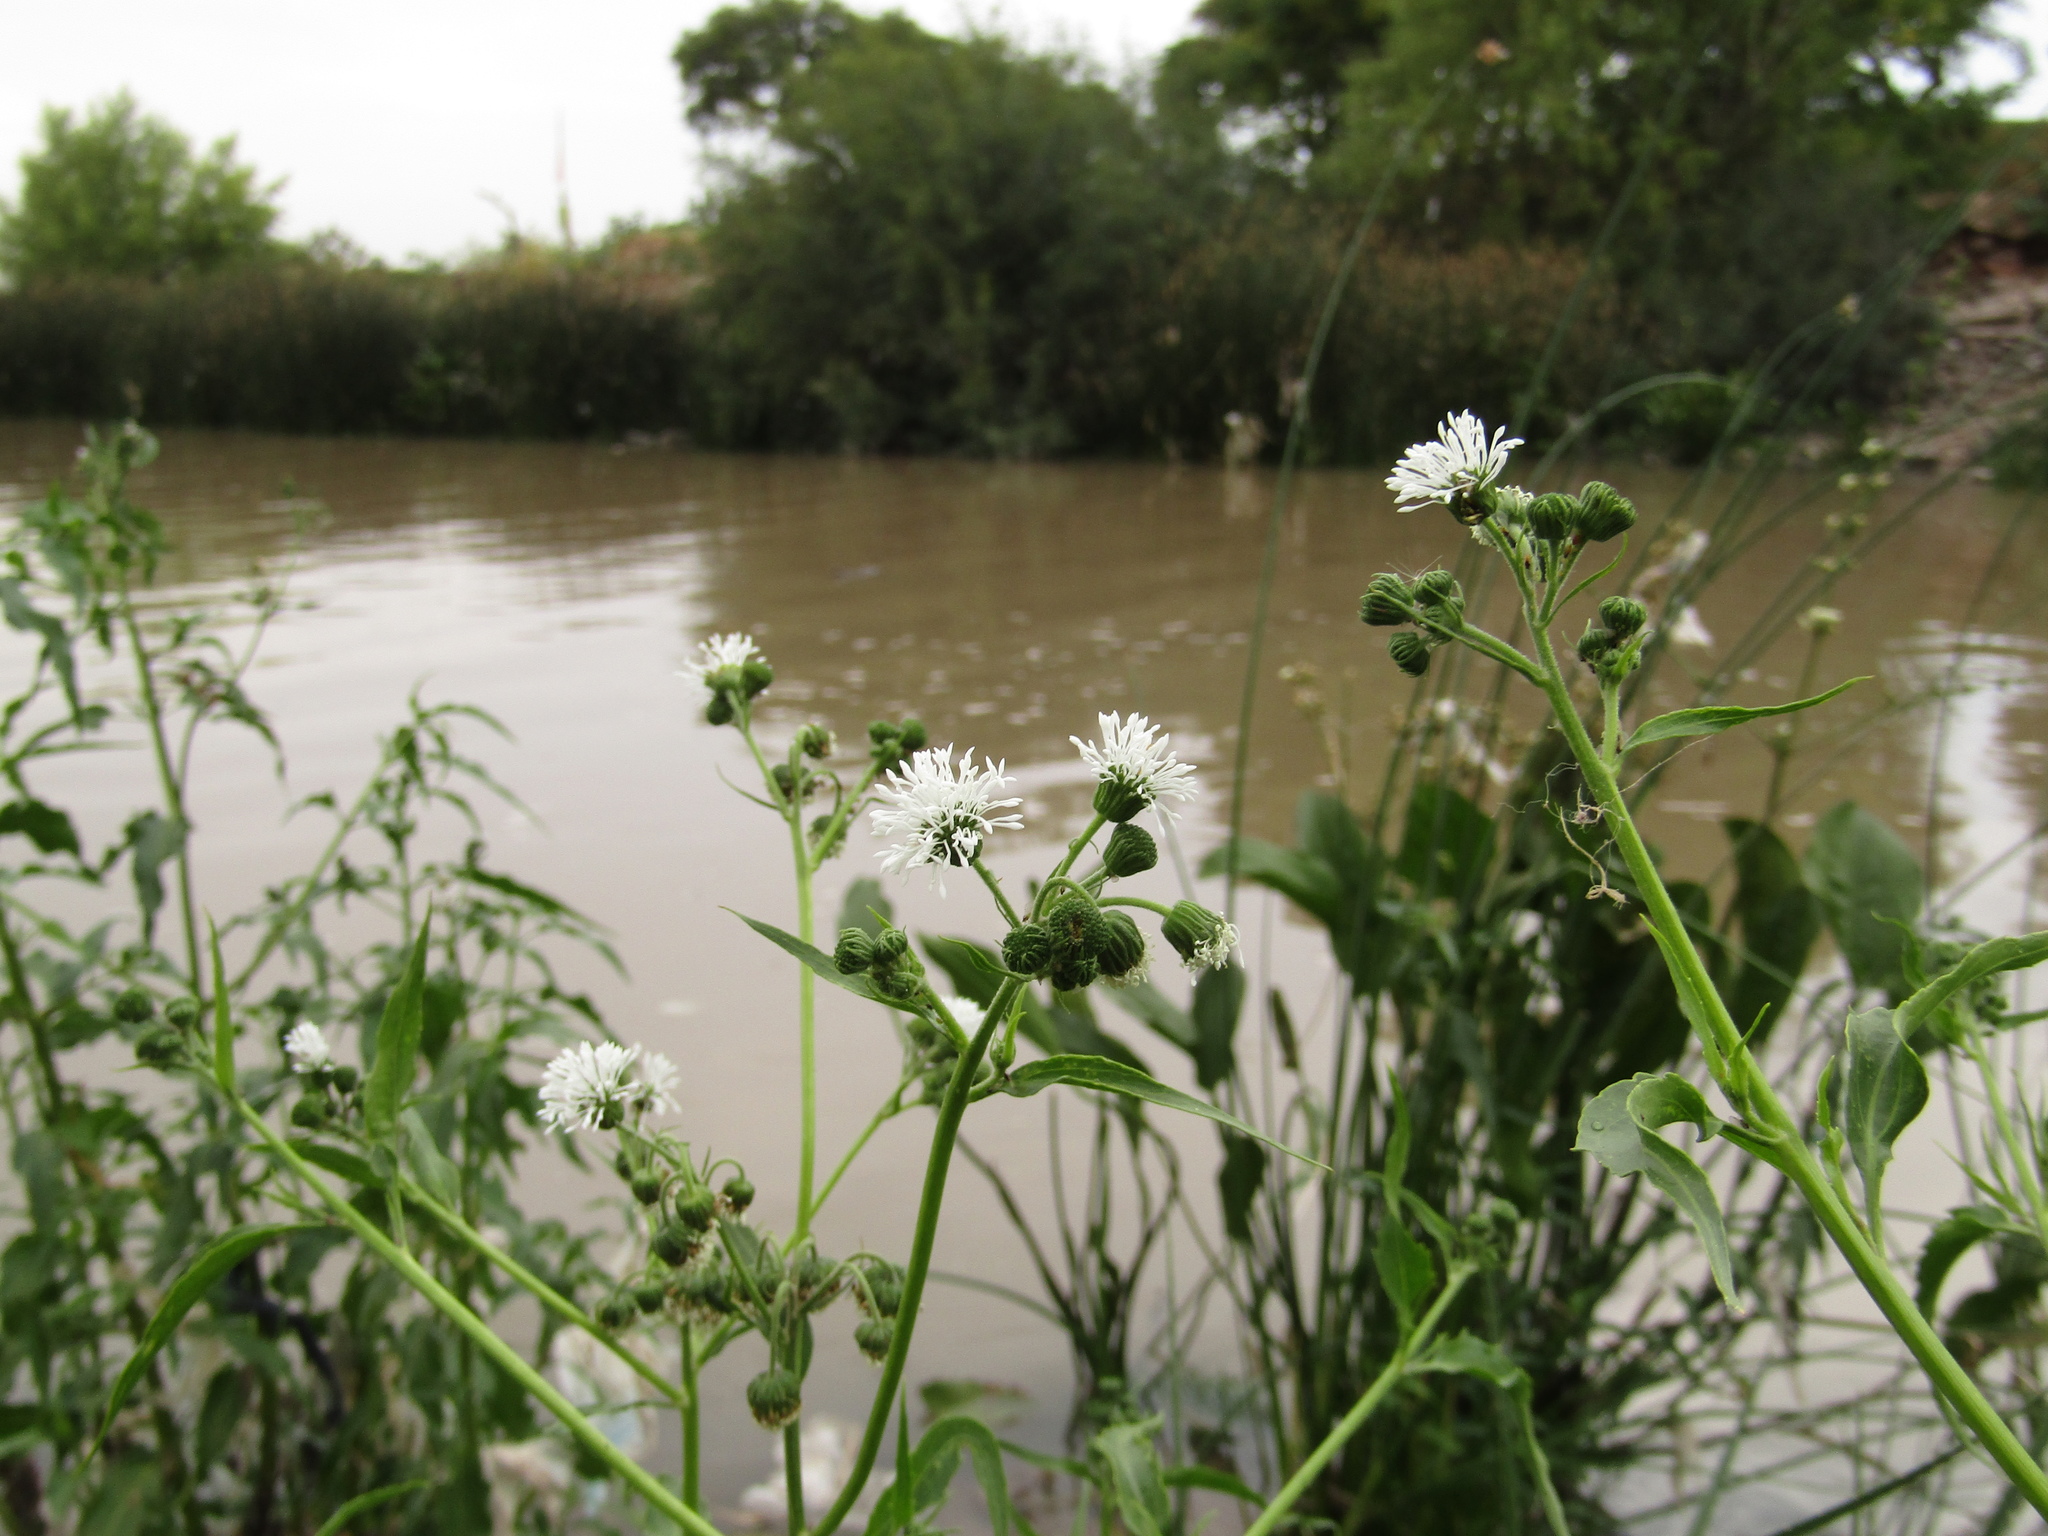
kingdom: Plantae
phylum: Tracheophyta
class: Magnoliopsida
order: Asterales
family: Asteraceae
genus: Gymnocoronis
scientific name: Gymnocoronis spilanthoides
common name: Senegal teaplant
